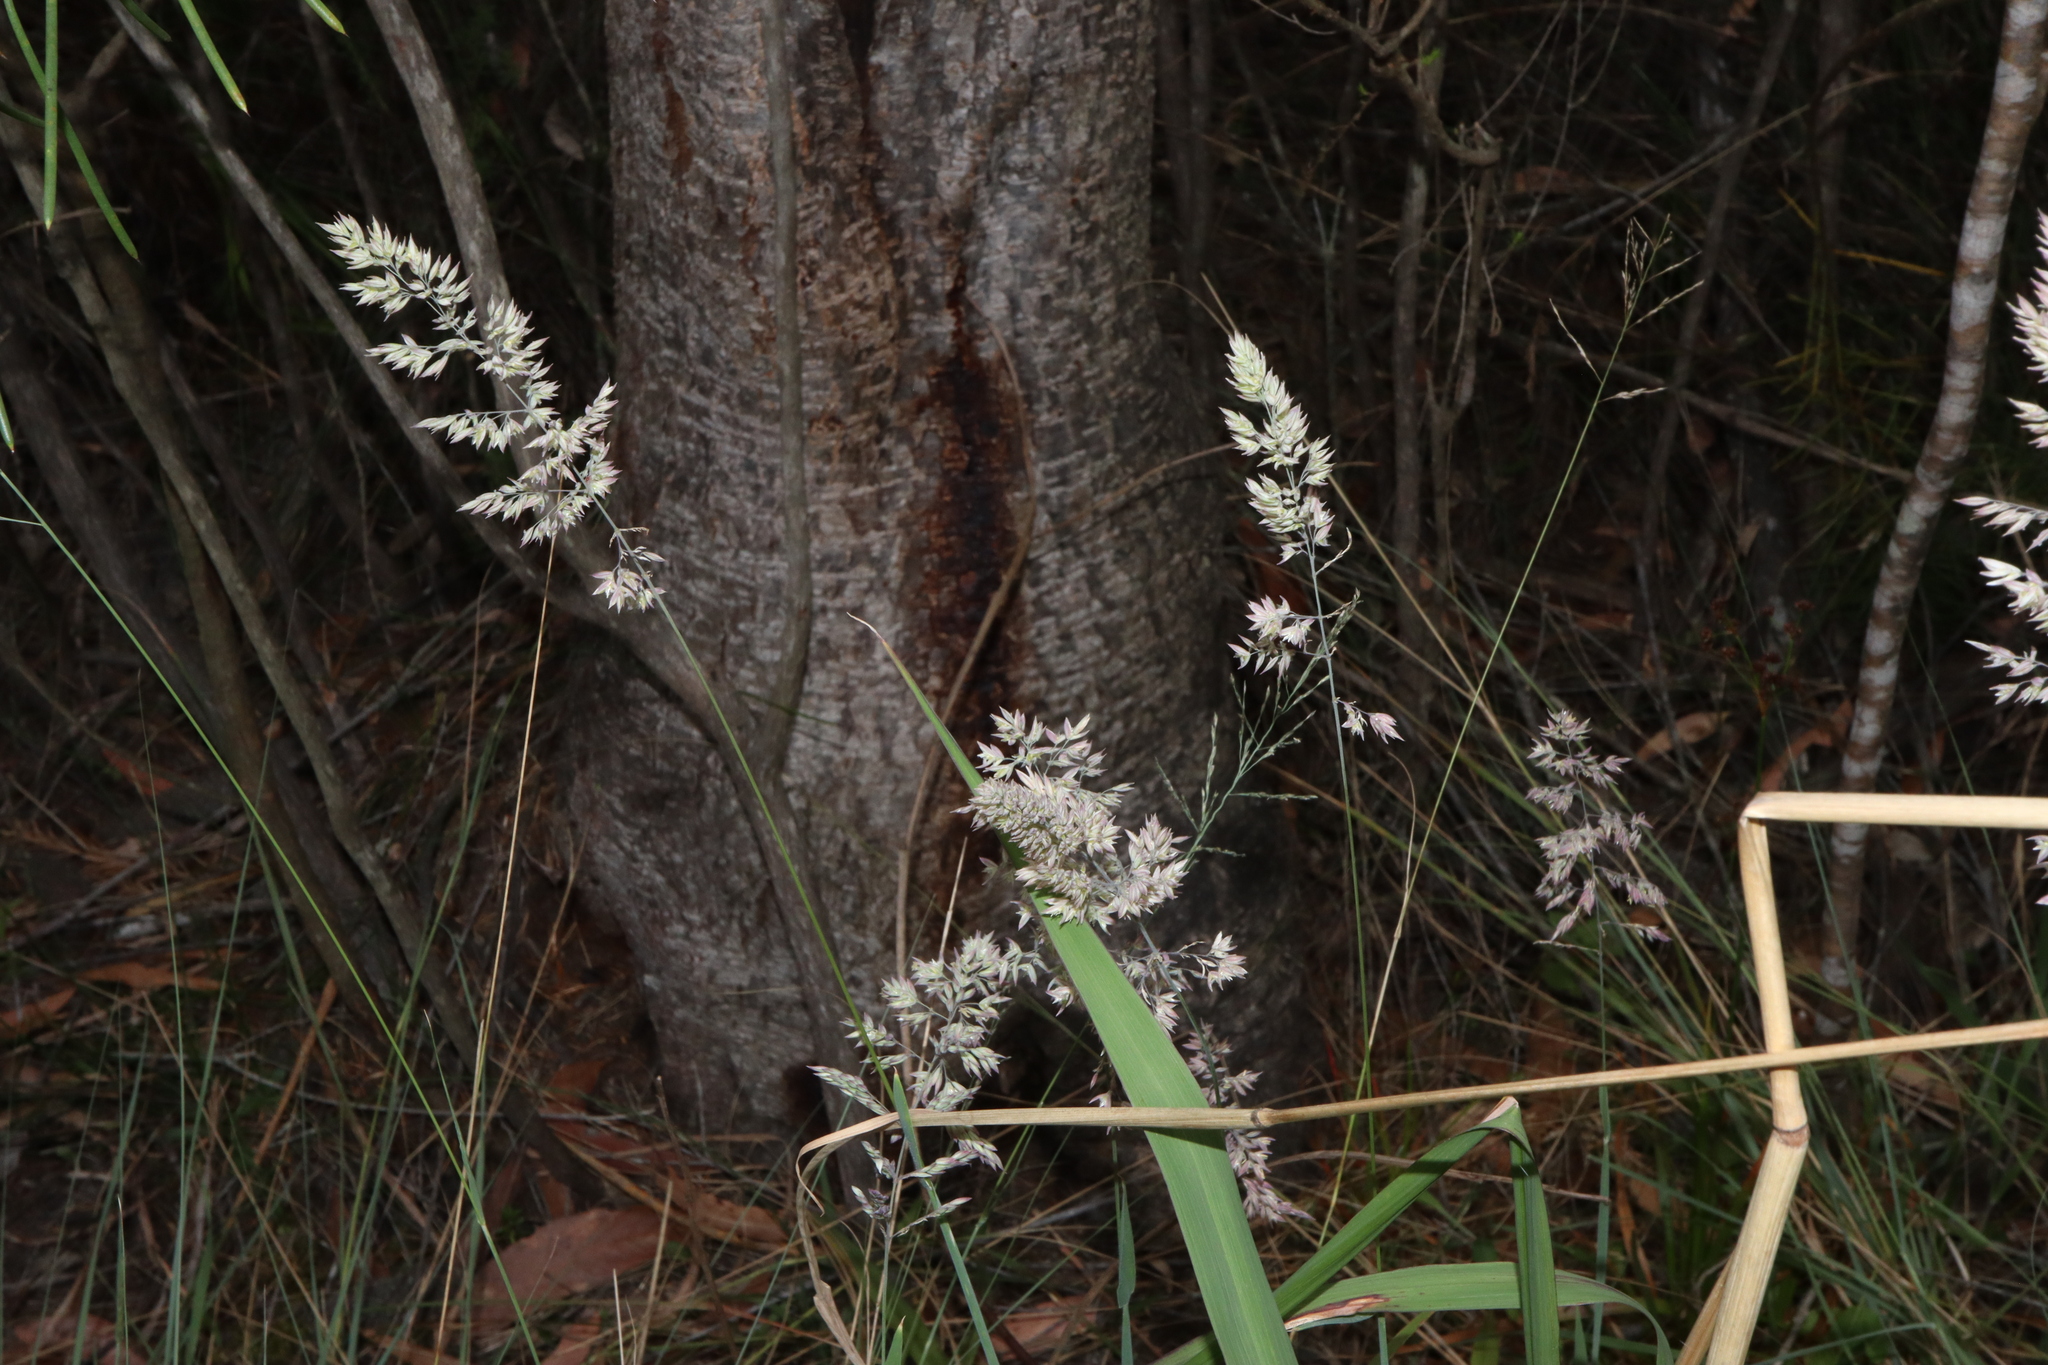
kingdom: Plantae
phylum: Tracheophyta
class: Liliopsida
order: Poales
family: Poaceae
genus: Holcus
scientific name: Holcus lanatus
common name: Yorkshire-fog
